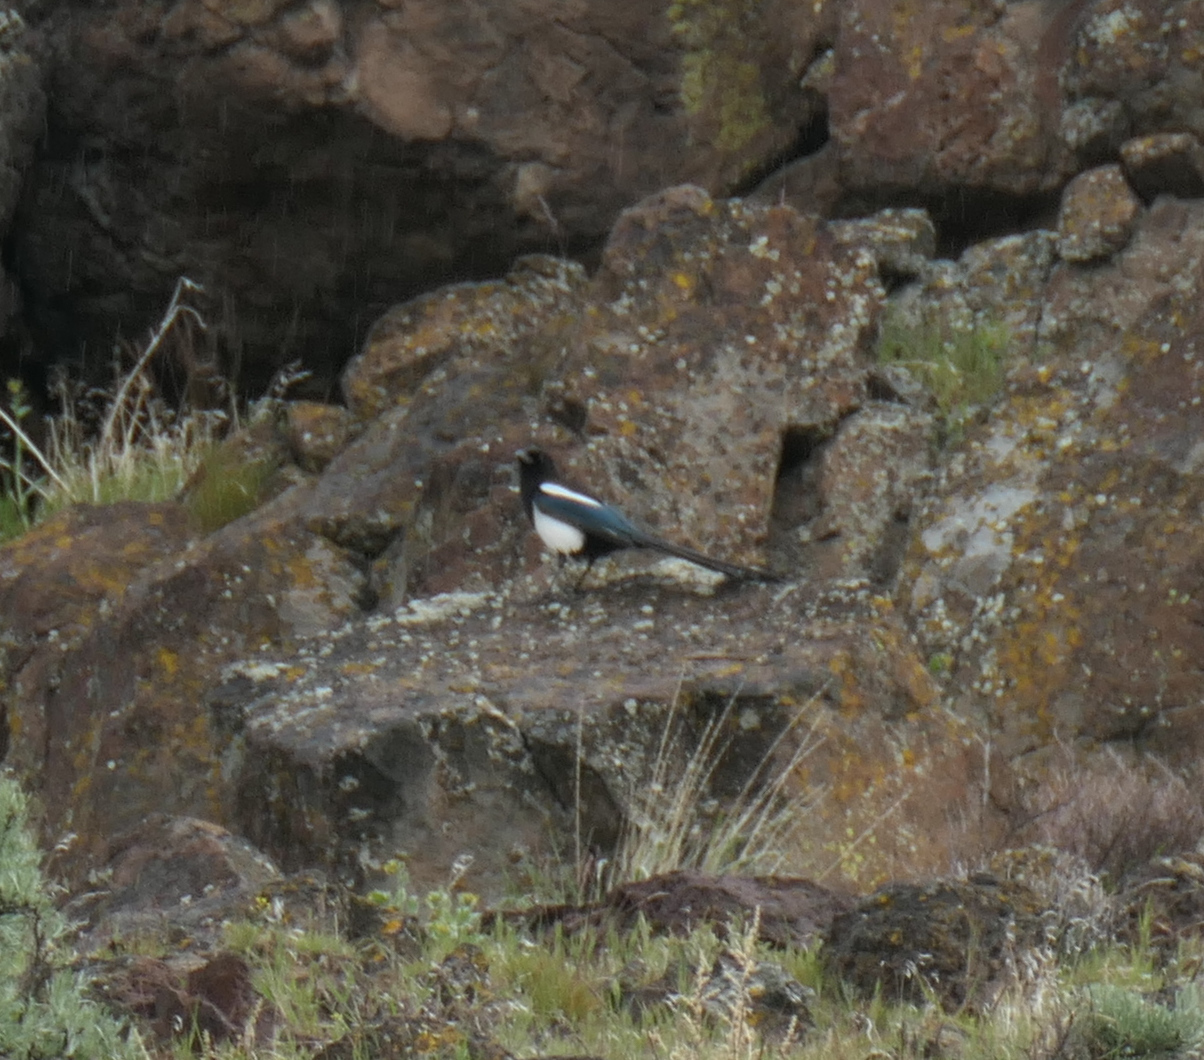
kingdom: Animalia
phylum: Chordata
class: Aves
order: Passeriformes
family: Corvidae
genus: Pica
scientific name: Pica hudsonia
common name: Black-billed magpie
